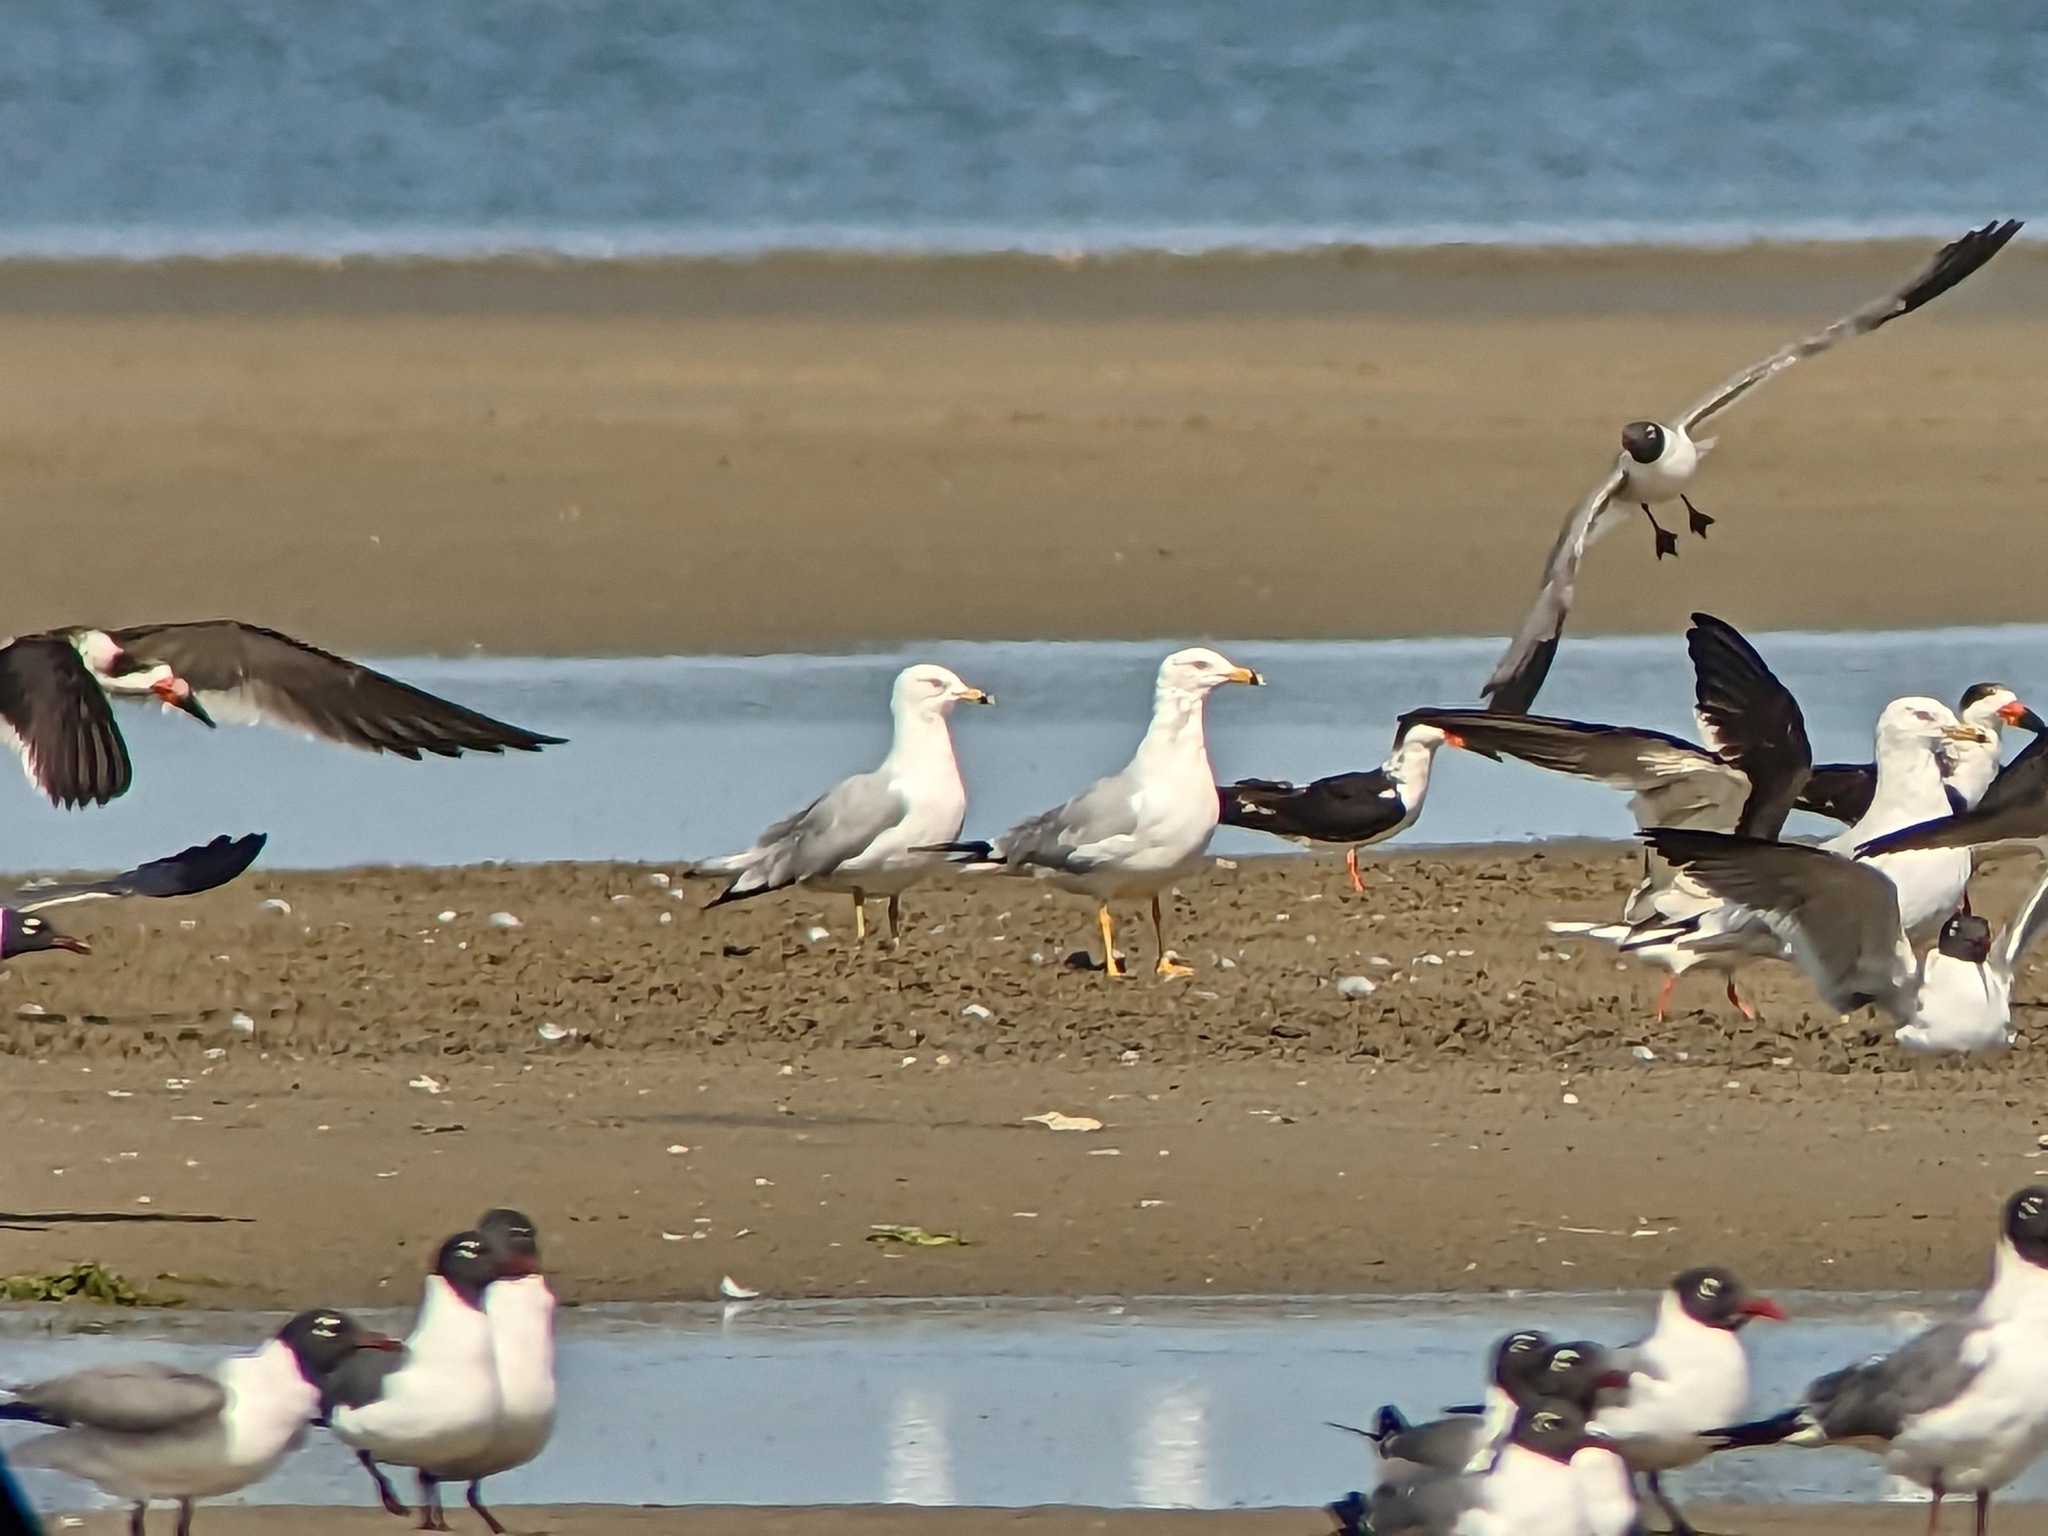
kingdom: Animalia
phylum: Chordata
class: Aves
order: Charadriiformes
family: Laridae
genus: Larus
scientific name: Larus delawarensis
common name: Ring-billed gull
